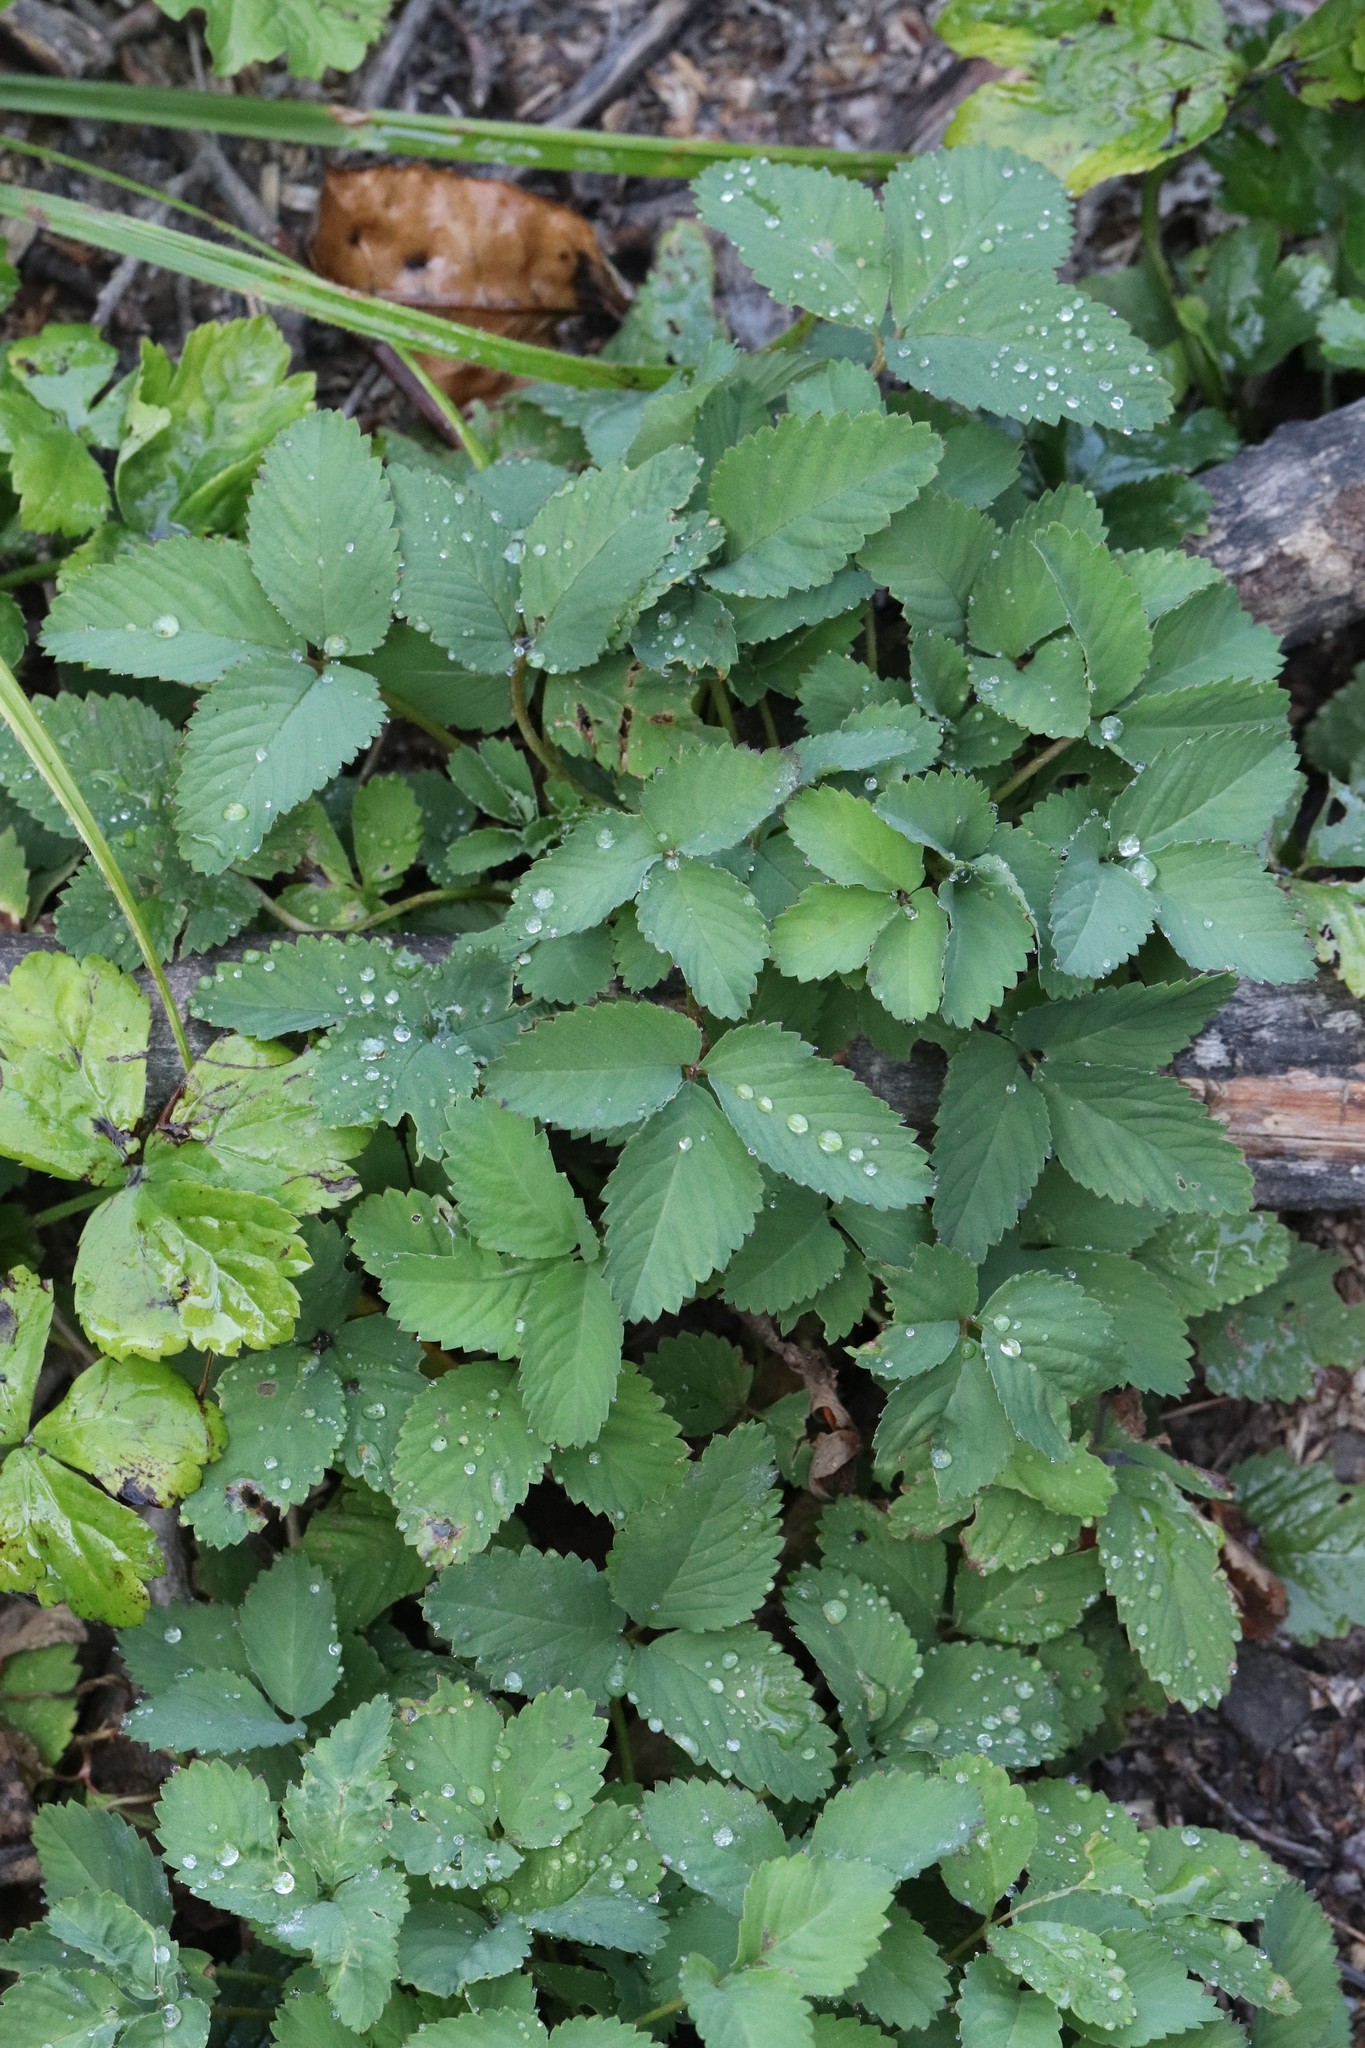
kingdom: Plantae
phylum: Tracheophyta
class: Magnoliopsida
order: Rosales
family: Rosaceae
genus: Potentilla
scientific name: Potentilla centigrana
